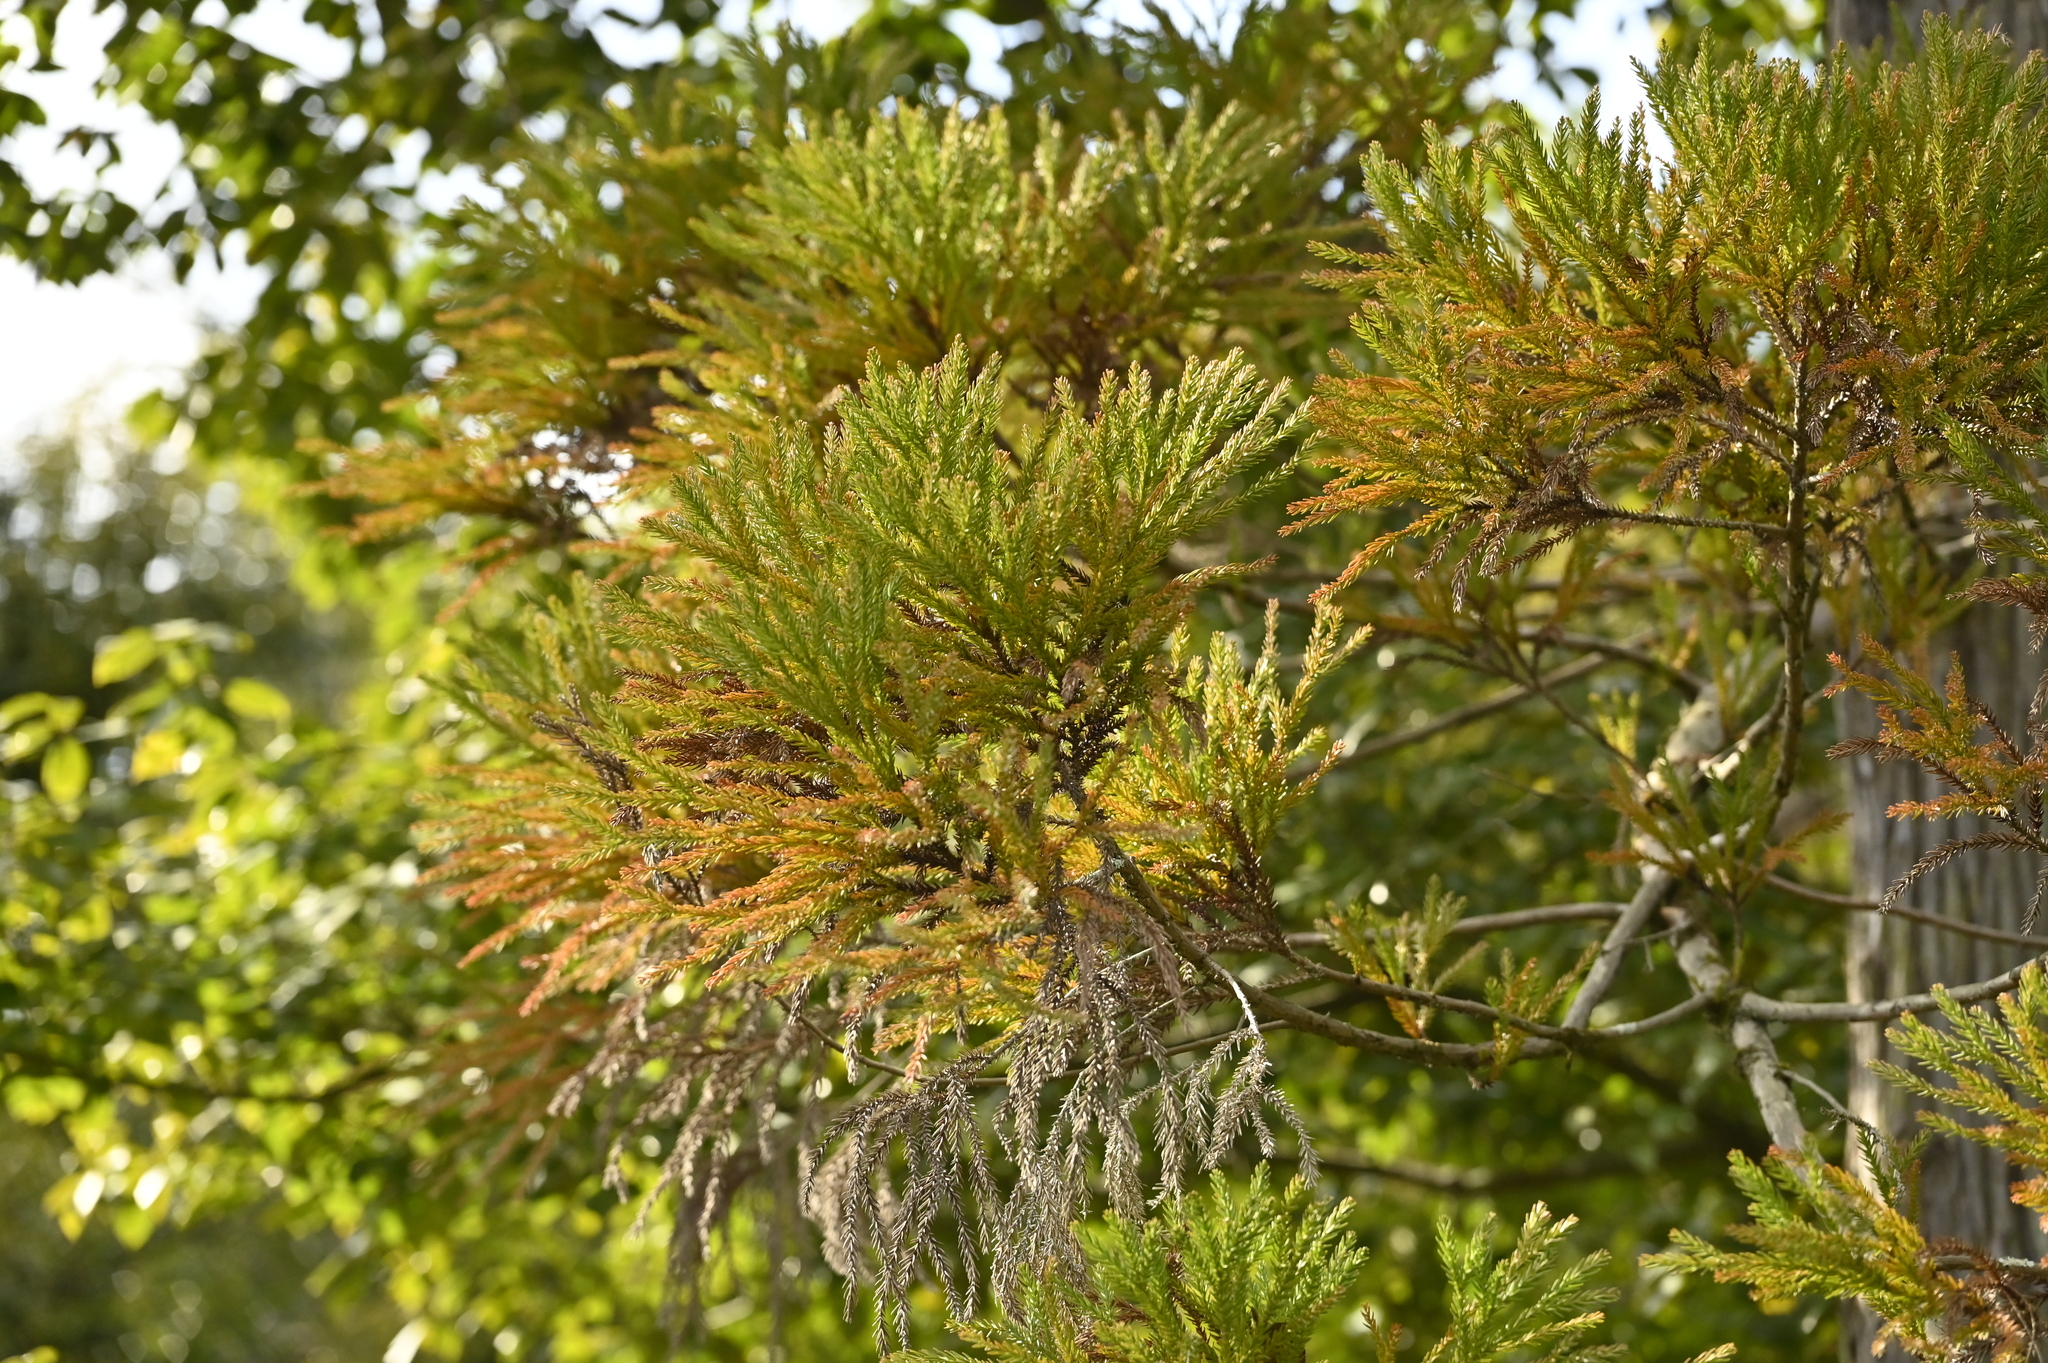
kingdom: Plantae
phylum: Tracheophyta
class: Pinopsida
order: Pinales
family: Cupressaceae
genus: Cryptomeria
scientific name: Cryptomeria japonica
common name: Japanese cedar
